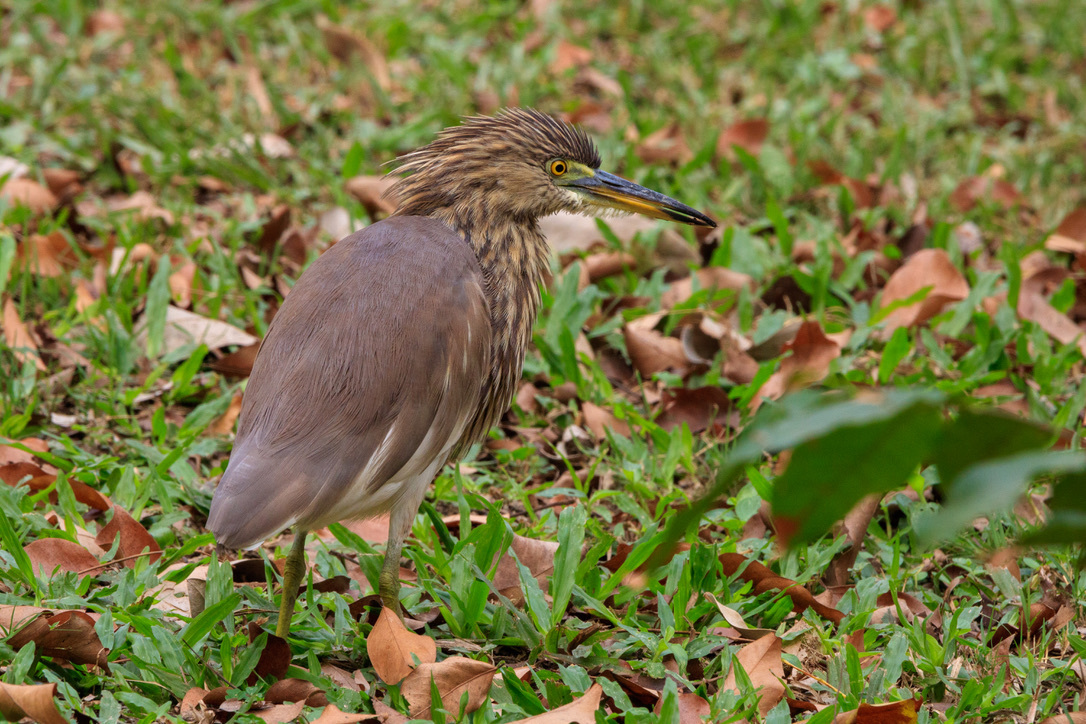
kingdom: Animalia
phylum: Chordata
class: Aves
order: Pelecaniformes
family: Ardeidae
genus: Ardeola
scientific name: Ardeola speciosa
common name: Javan pond heron
